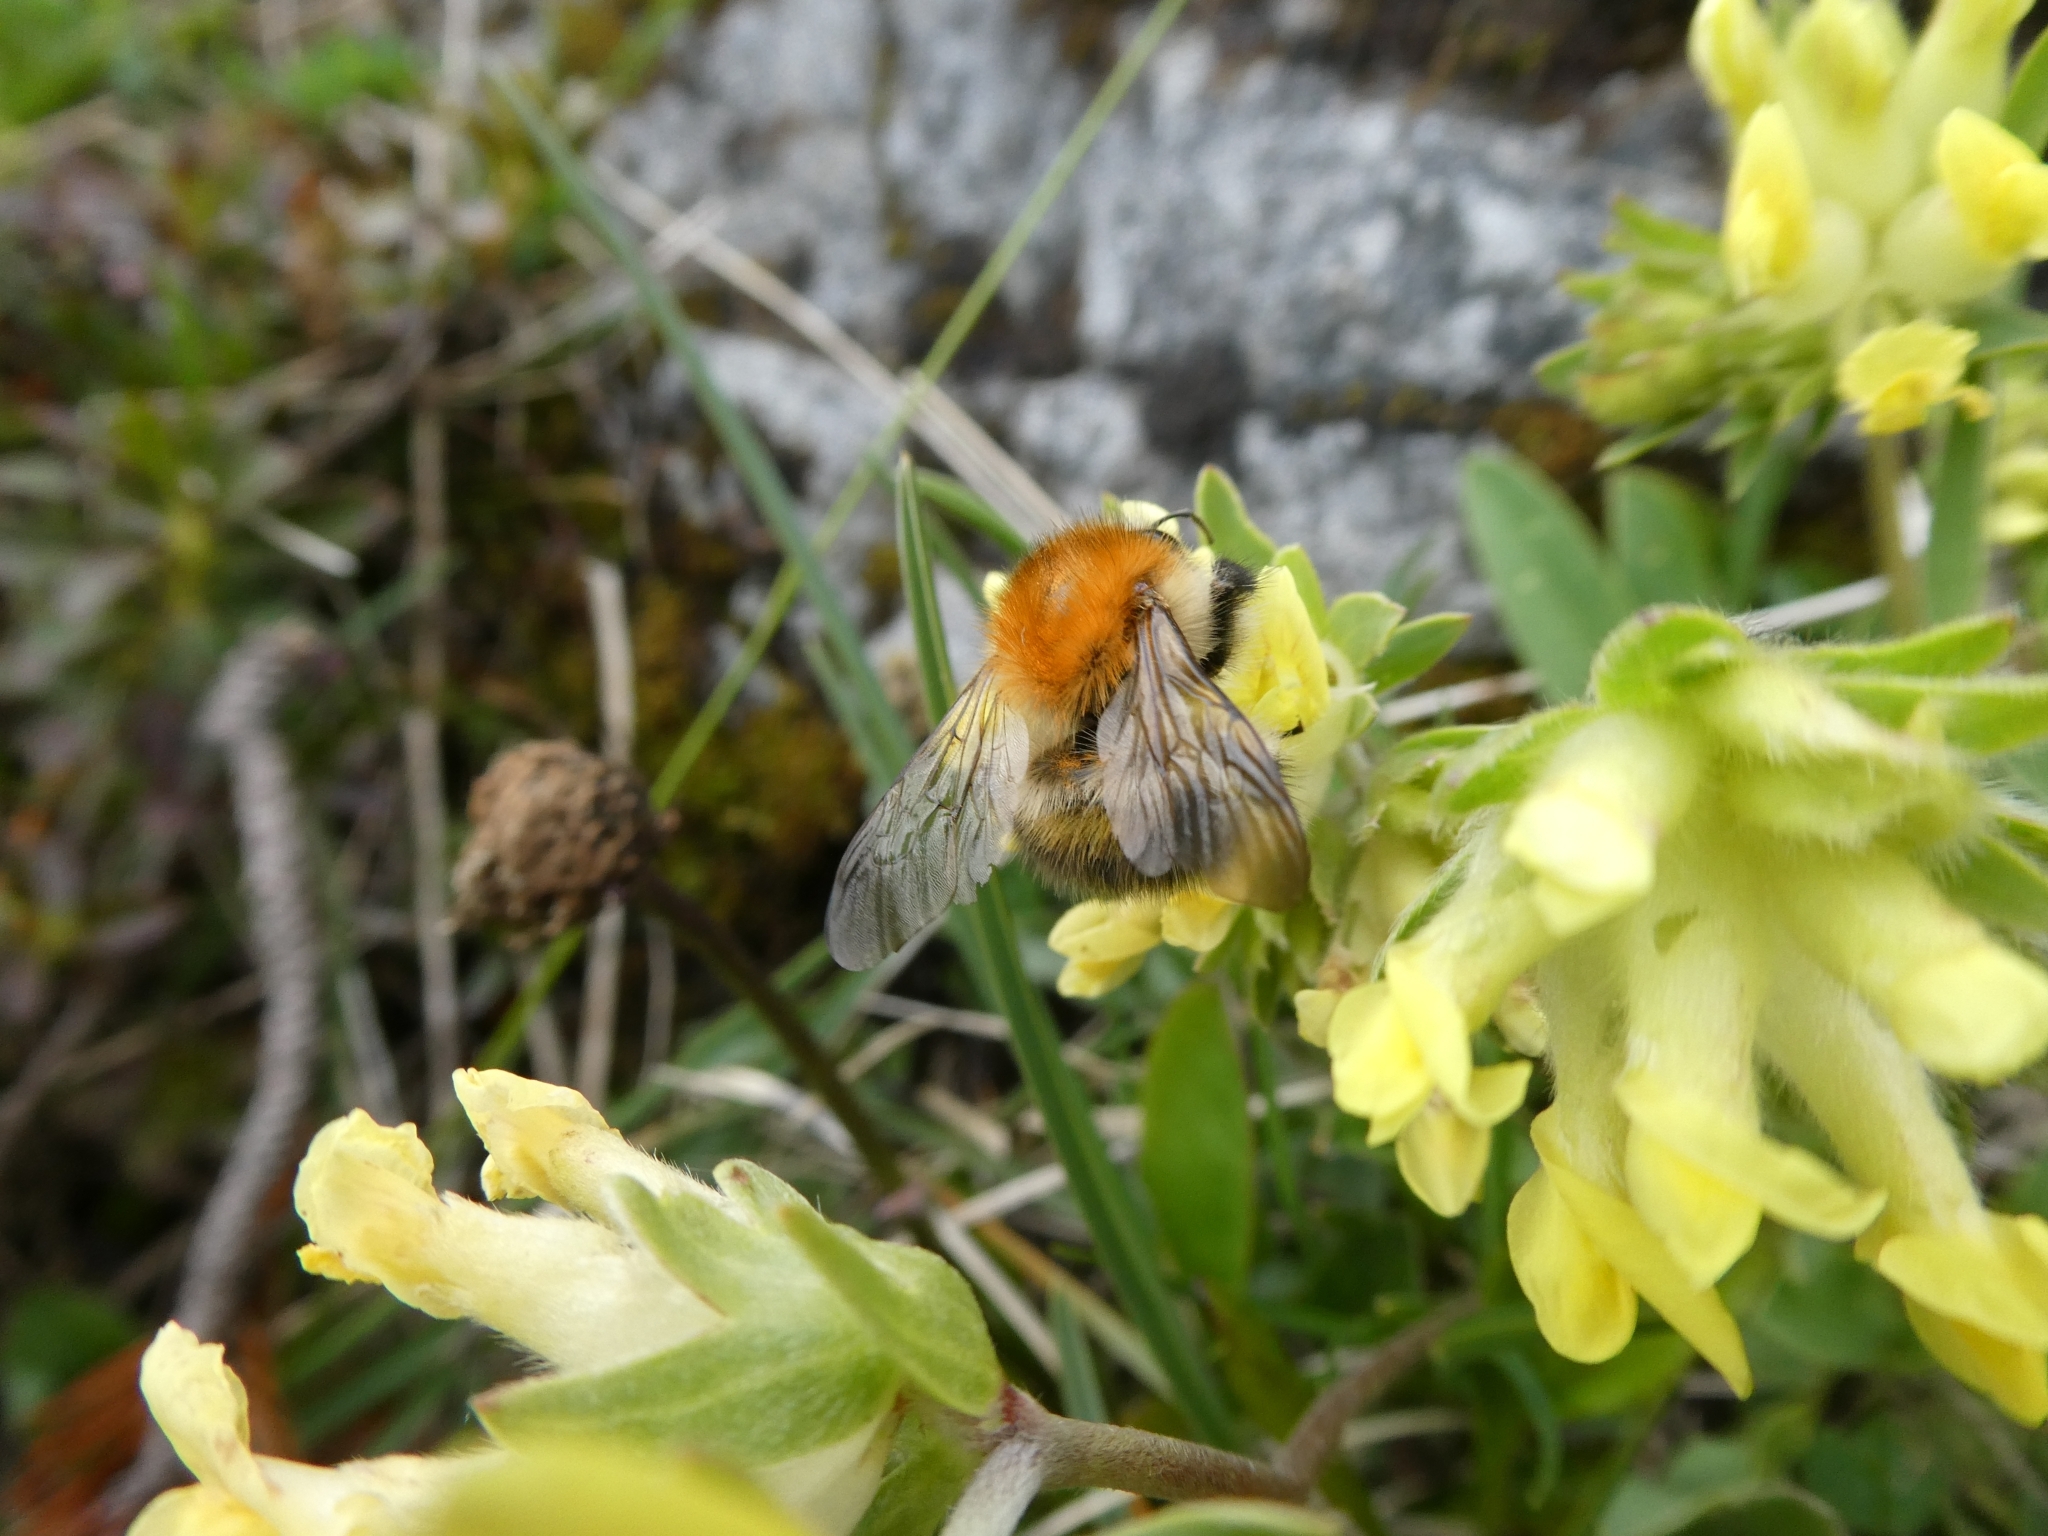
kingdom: Animalia
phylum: Arthropoda
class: Insecta
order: Hymenoptera
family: Apidae
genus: Bombus
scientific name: Bombus pascuorum
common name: Common carder bee
